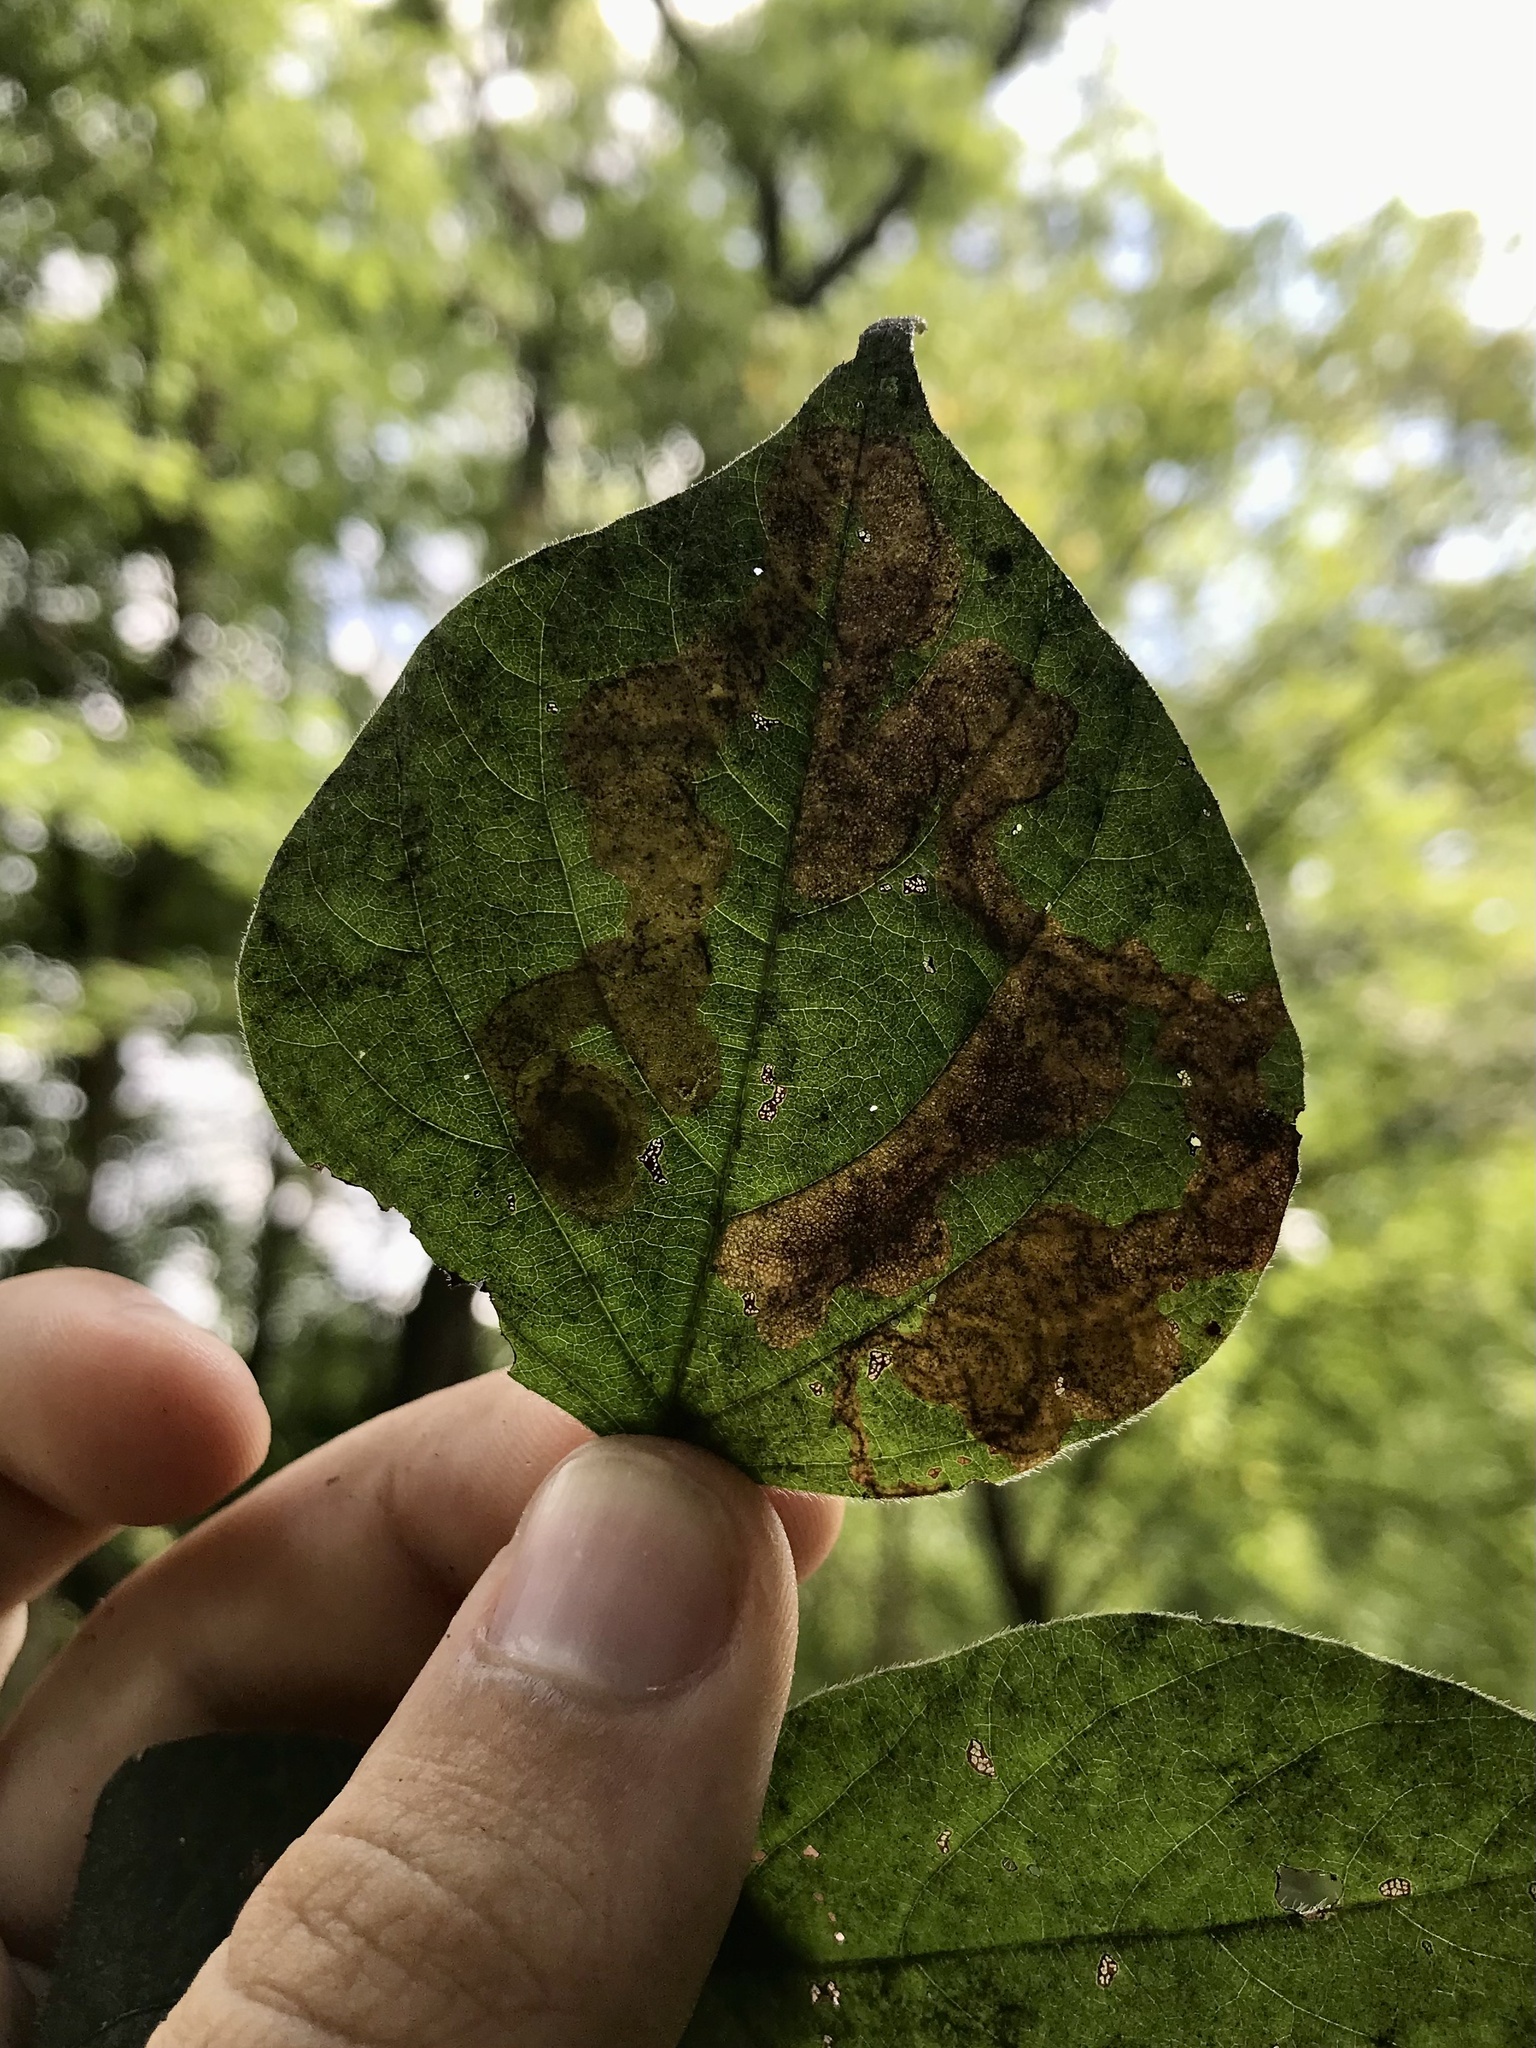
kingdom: Animalia
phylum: Arthropoda
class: Insecta
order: Coleoptera
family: Buprestidae
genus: Pachyschelus
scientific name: Pachyschelus laevigatus
